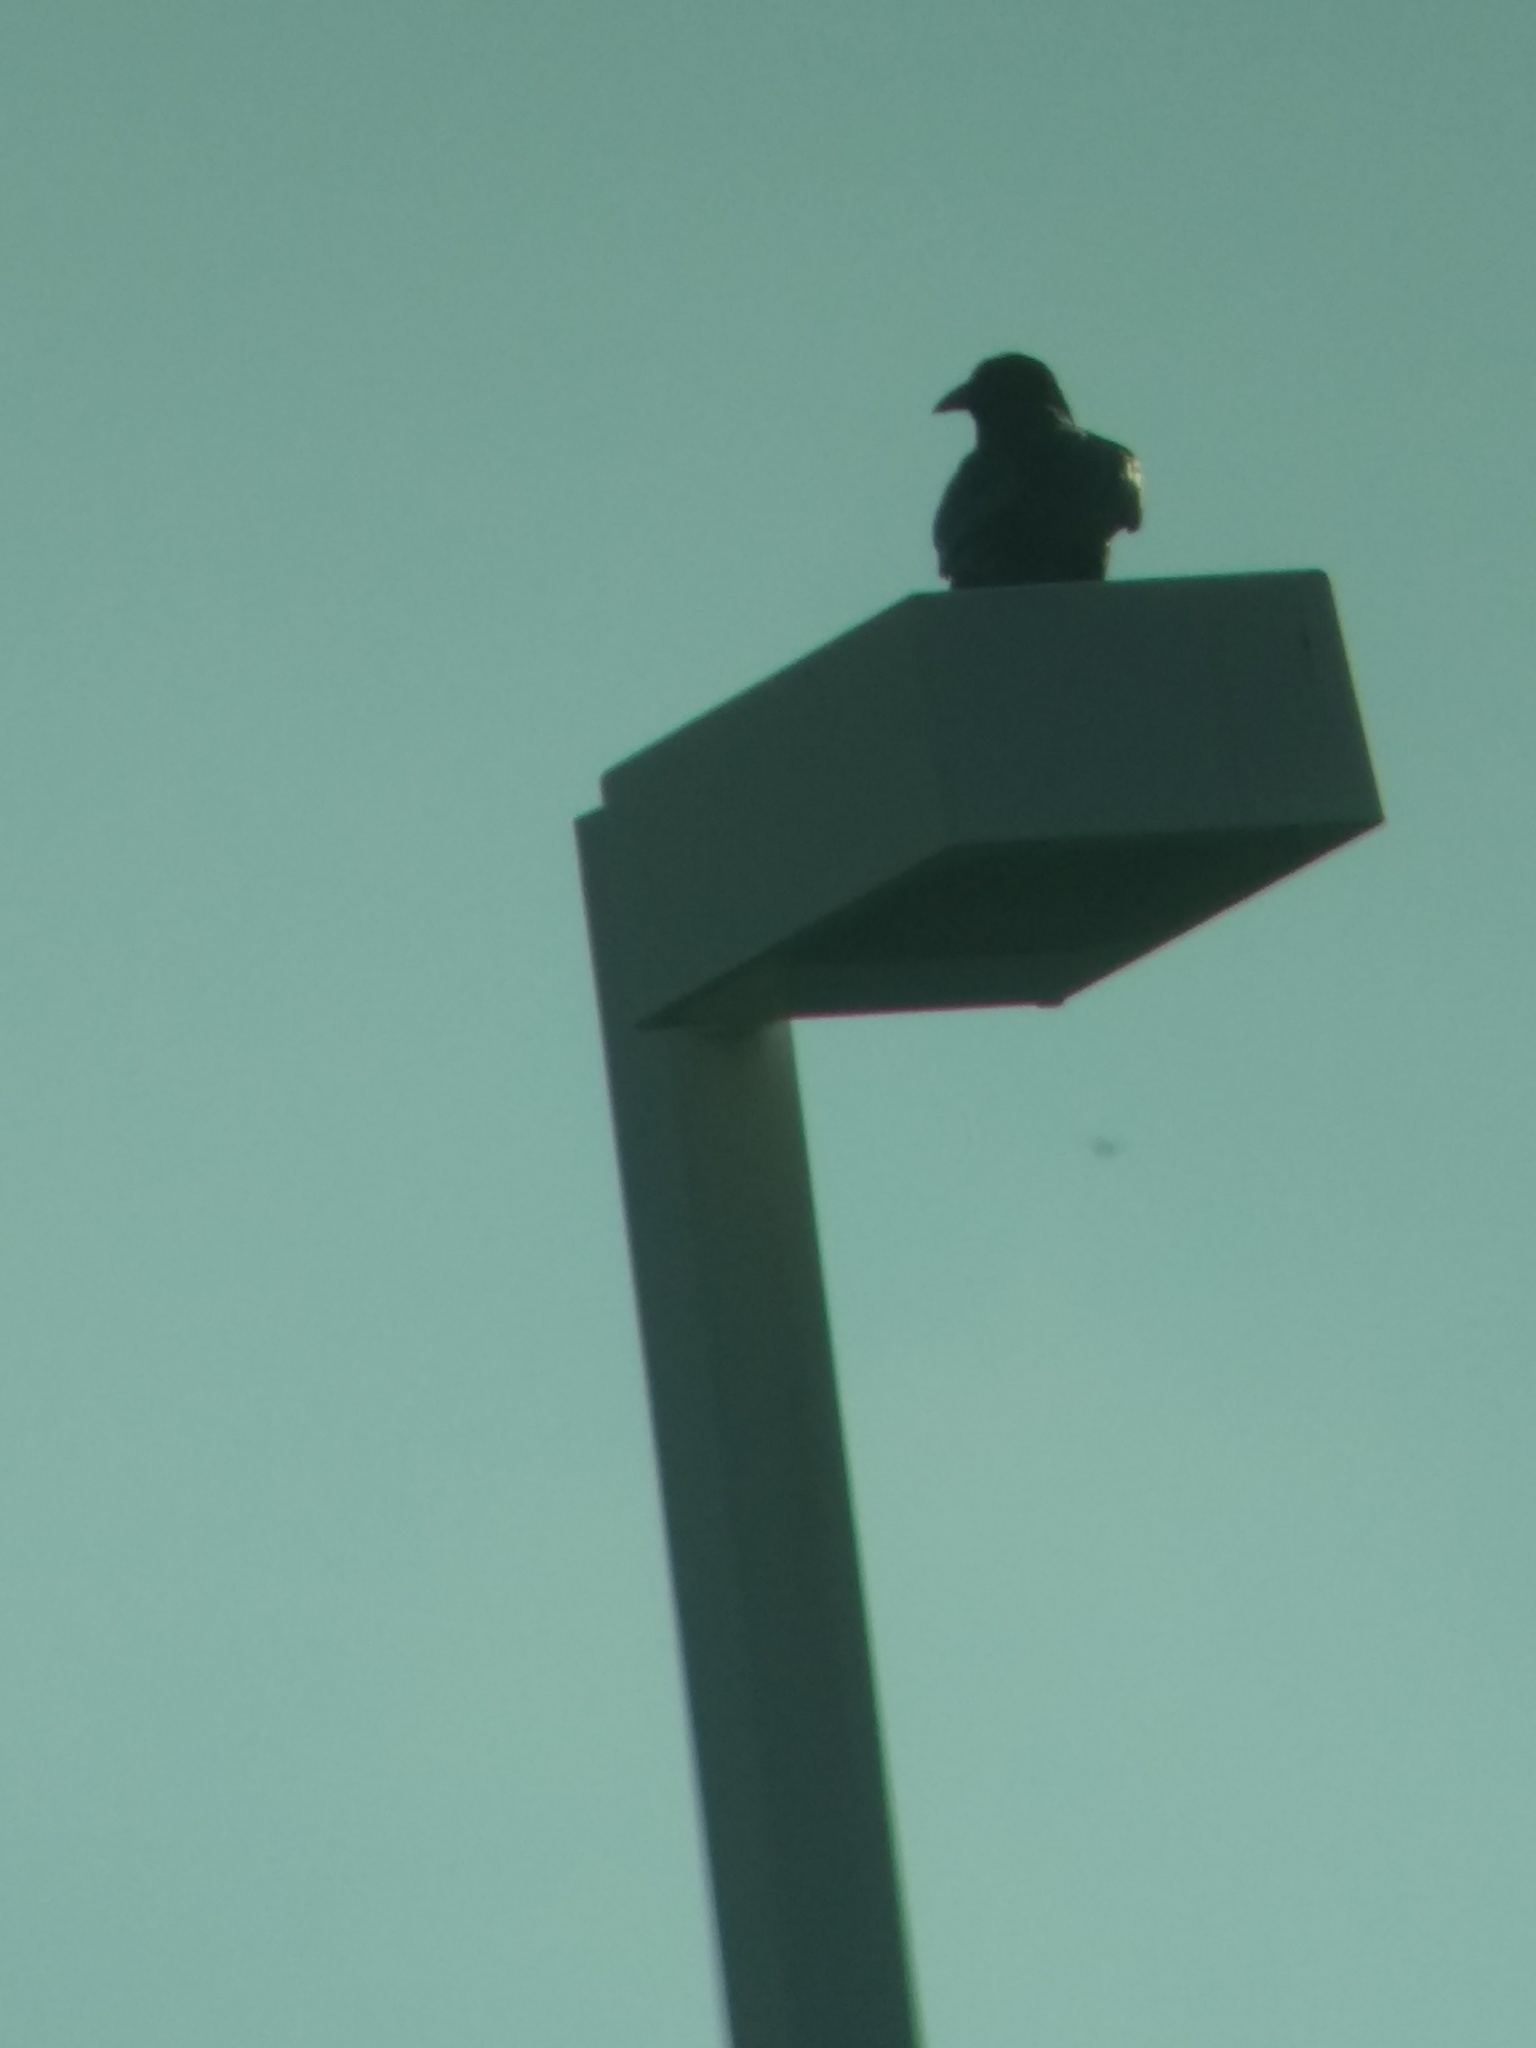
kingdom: Animalia
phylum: Chordata
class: Aves
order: Passeriformes
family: Corvidae
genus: Corvus
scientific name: Corvus corax
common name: Common raven
